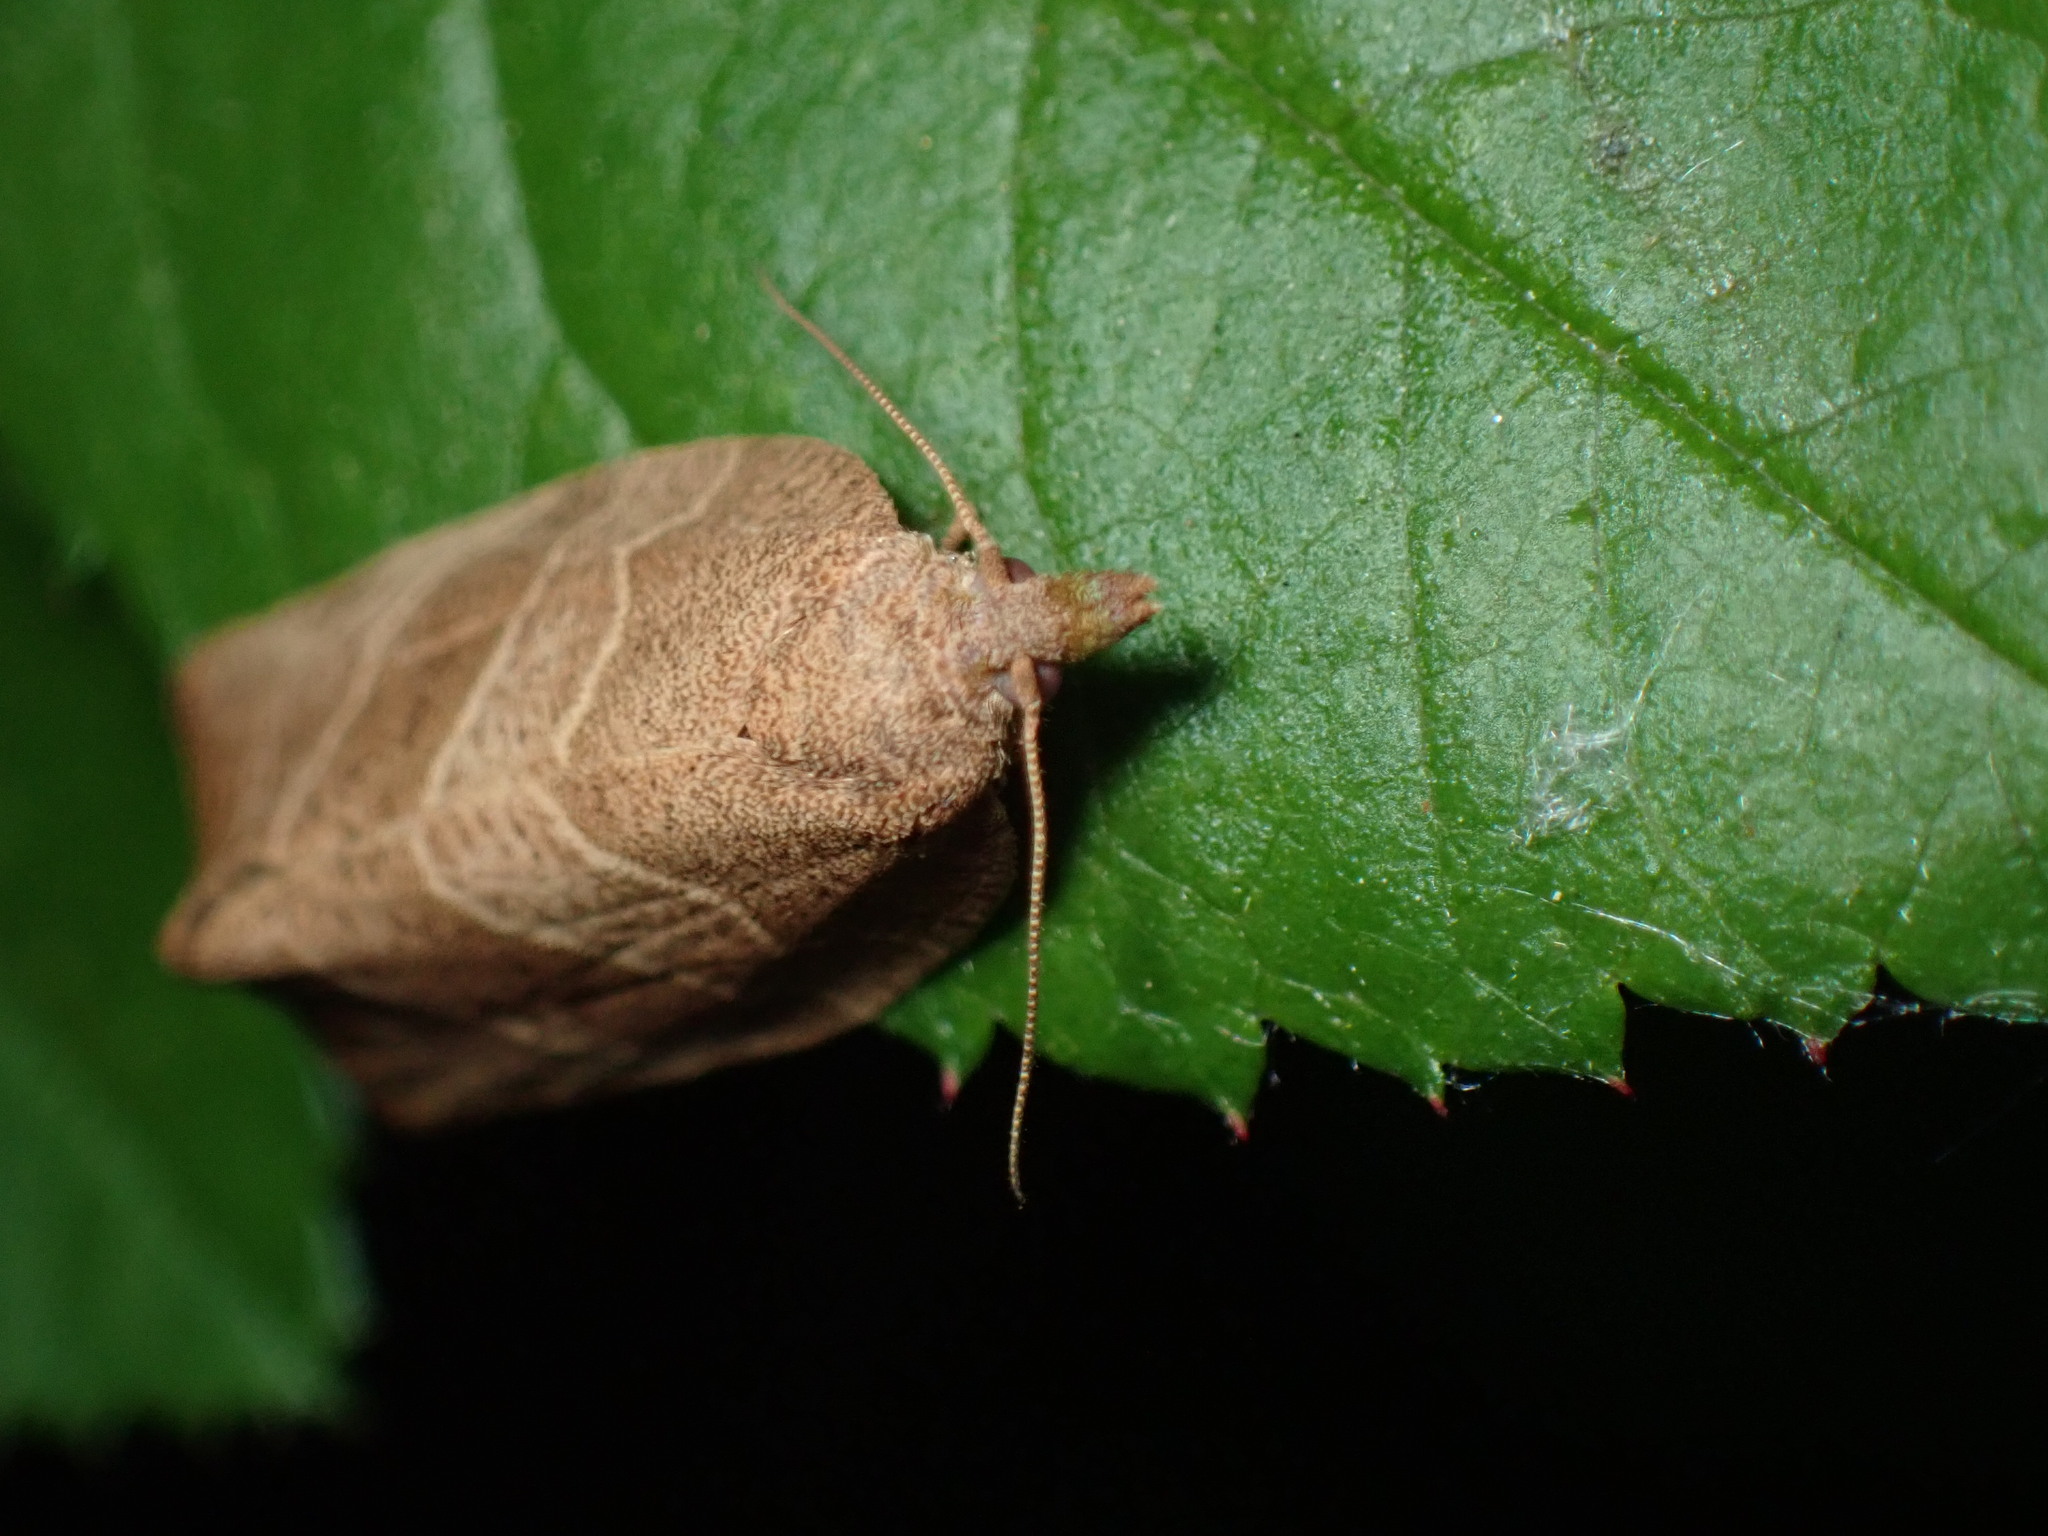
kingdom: Animalia
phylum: Arthropoda
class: Insecta
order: Lepidoptera
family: Tortricidae
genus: Pandemis
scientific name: Pandemis limitata
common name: Three-lined leafroller moth
